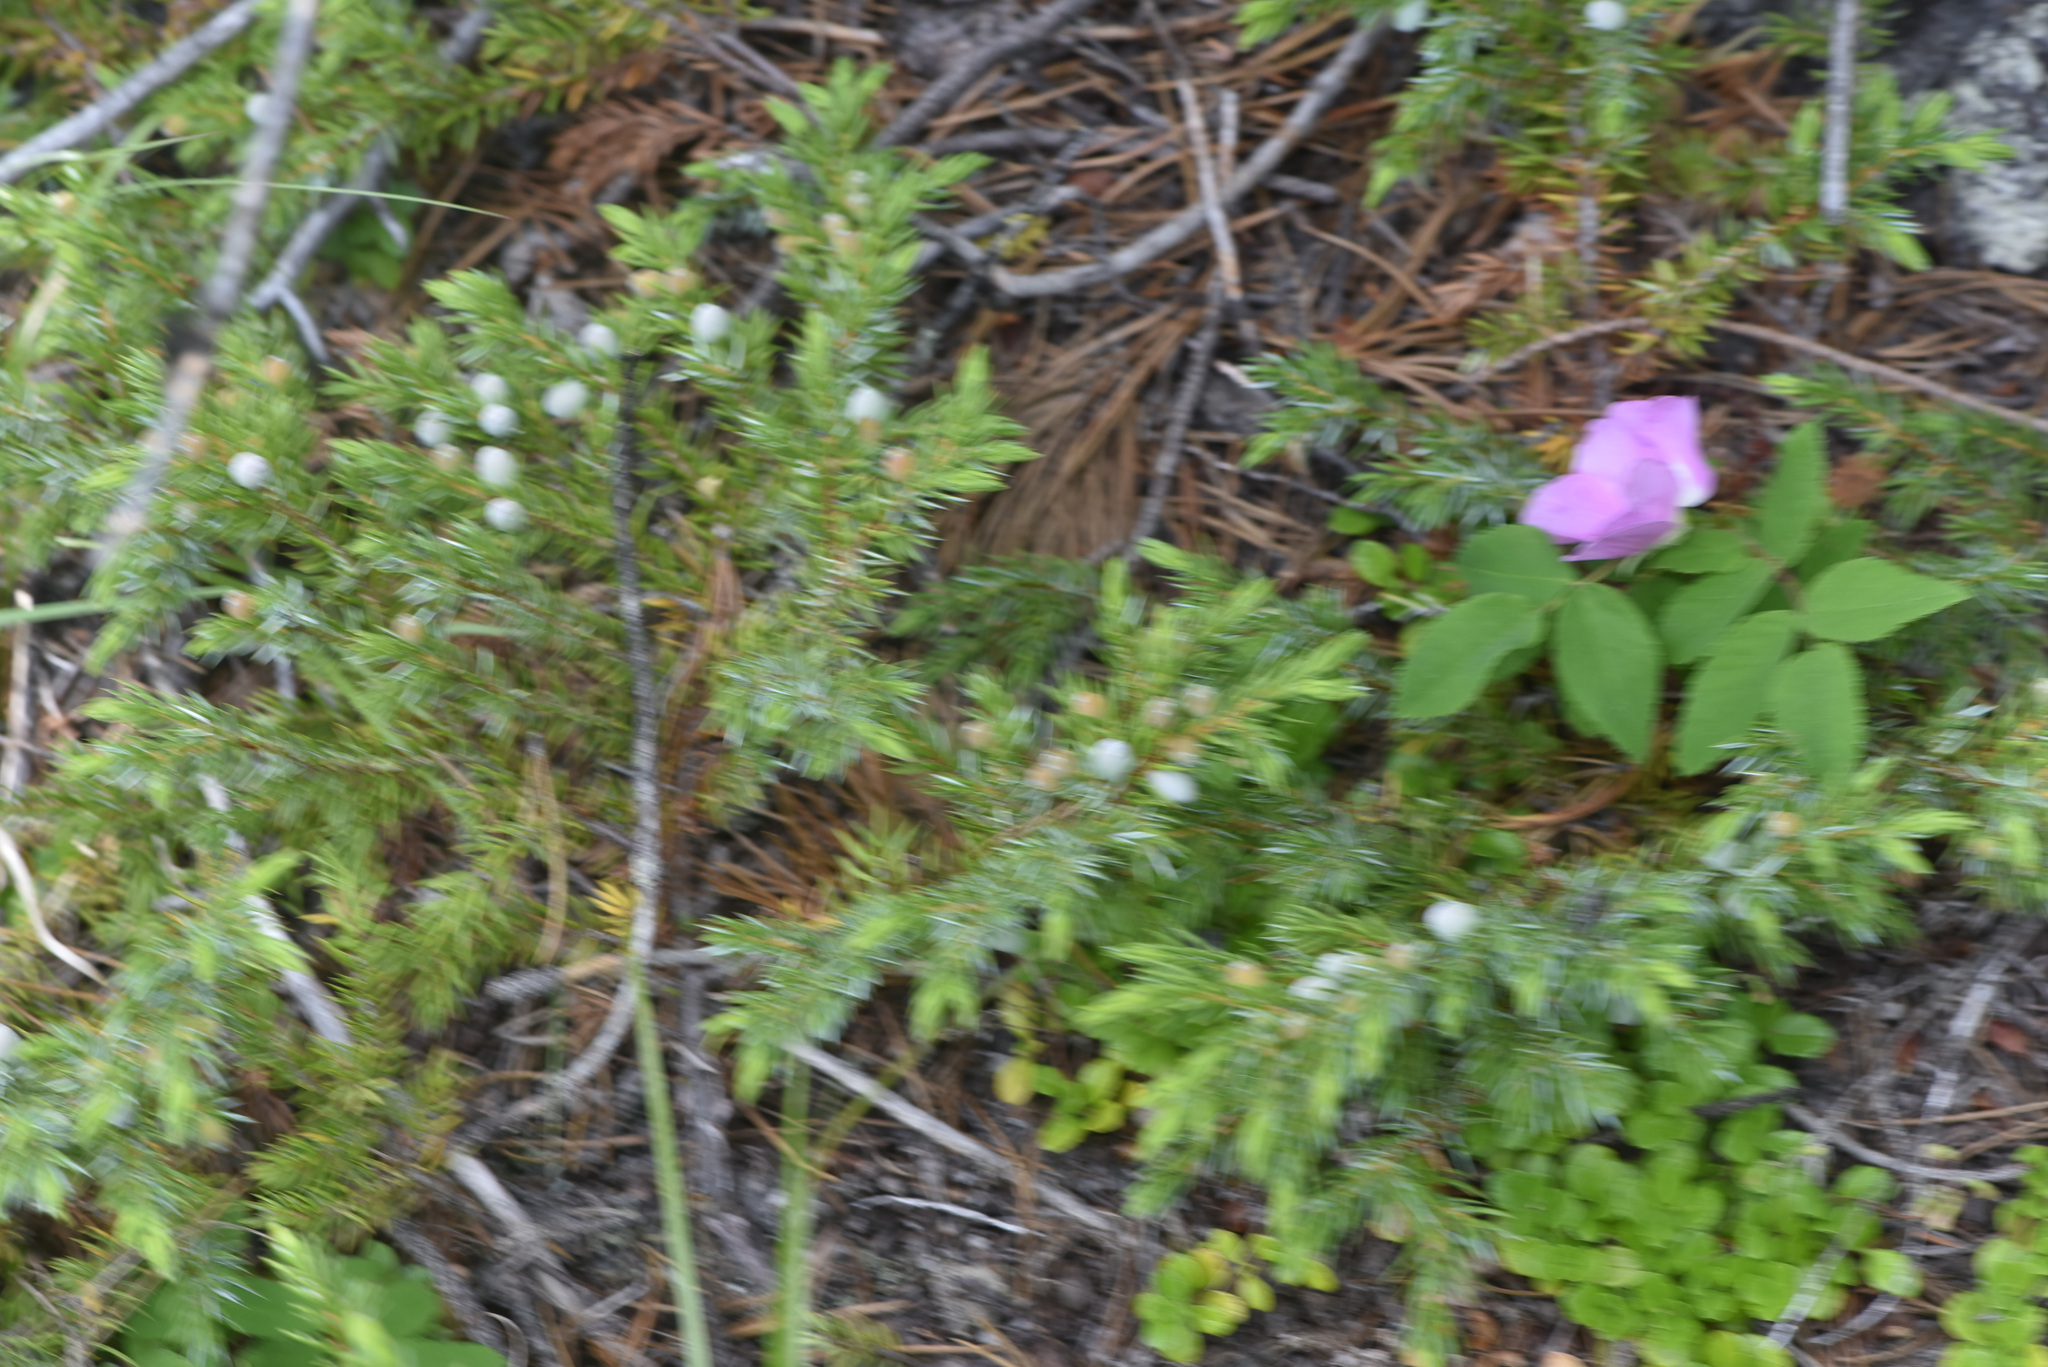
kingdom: Plantae
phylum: Tracheophyta
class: Pinopsida
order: Pinales
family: Cupressaceae
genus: Juniperus
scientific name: Juniperus communis
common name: Common juniper
